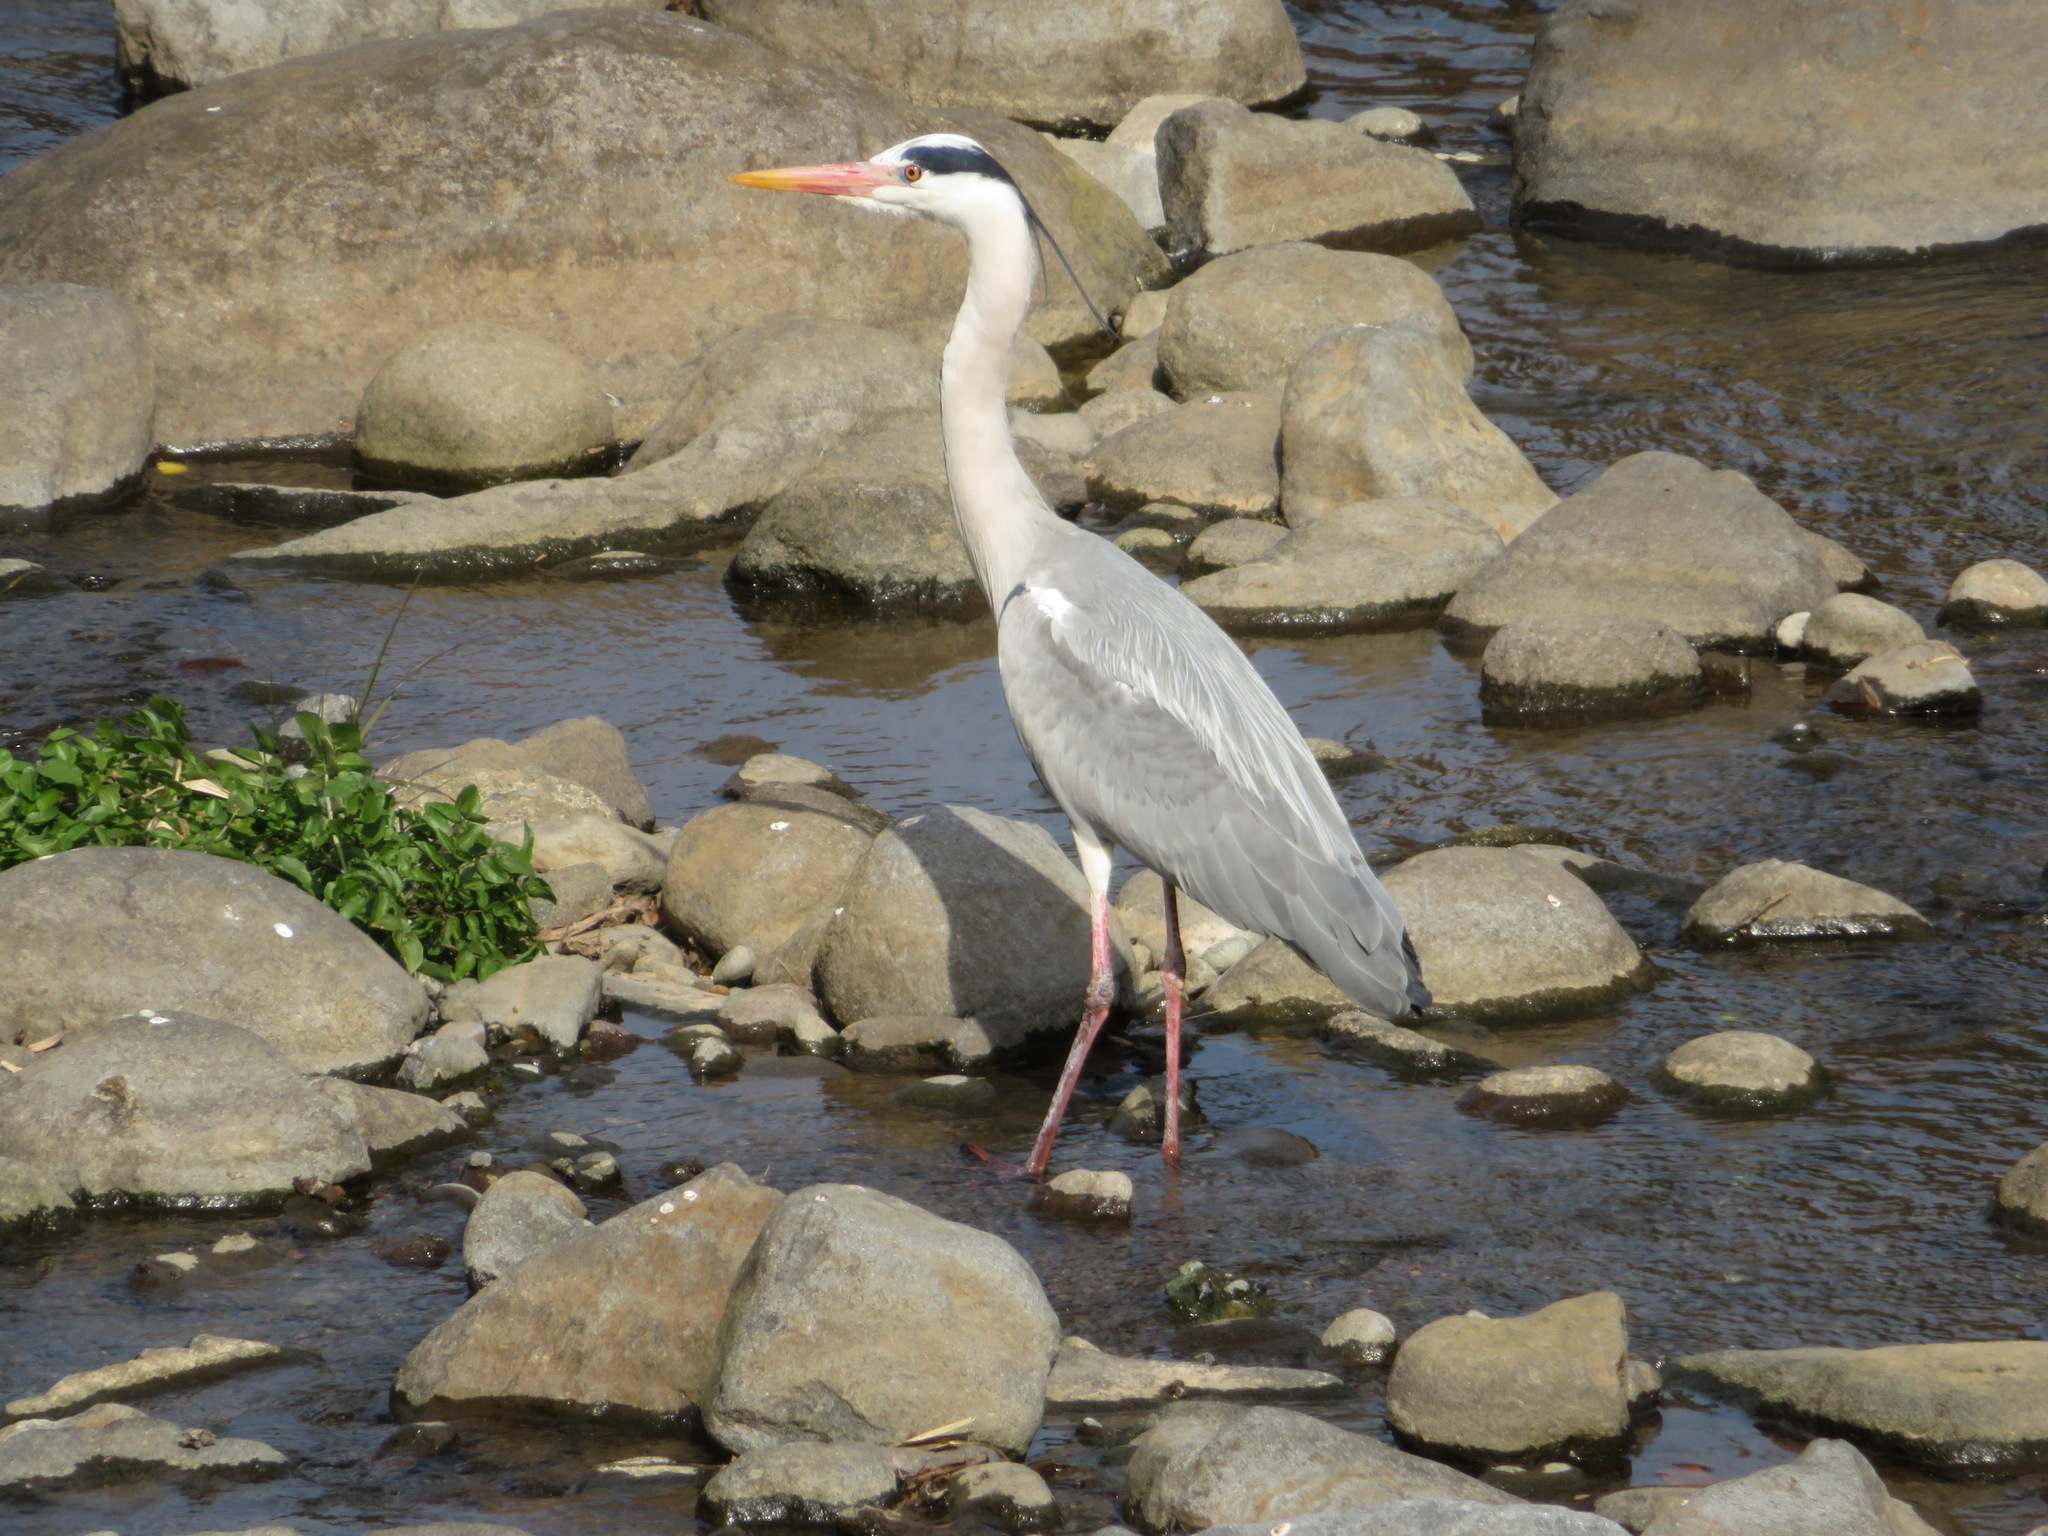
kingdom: Animalia
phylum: Chordata
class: Aves
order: Pelecaniformes
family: Ardeidae
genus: Ardea
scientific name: Ardea cinerea
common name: Grey heron
